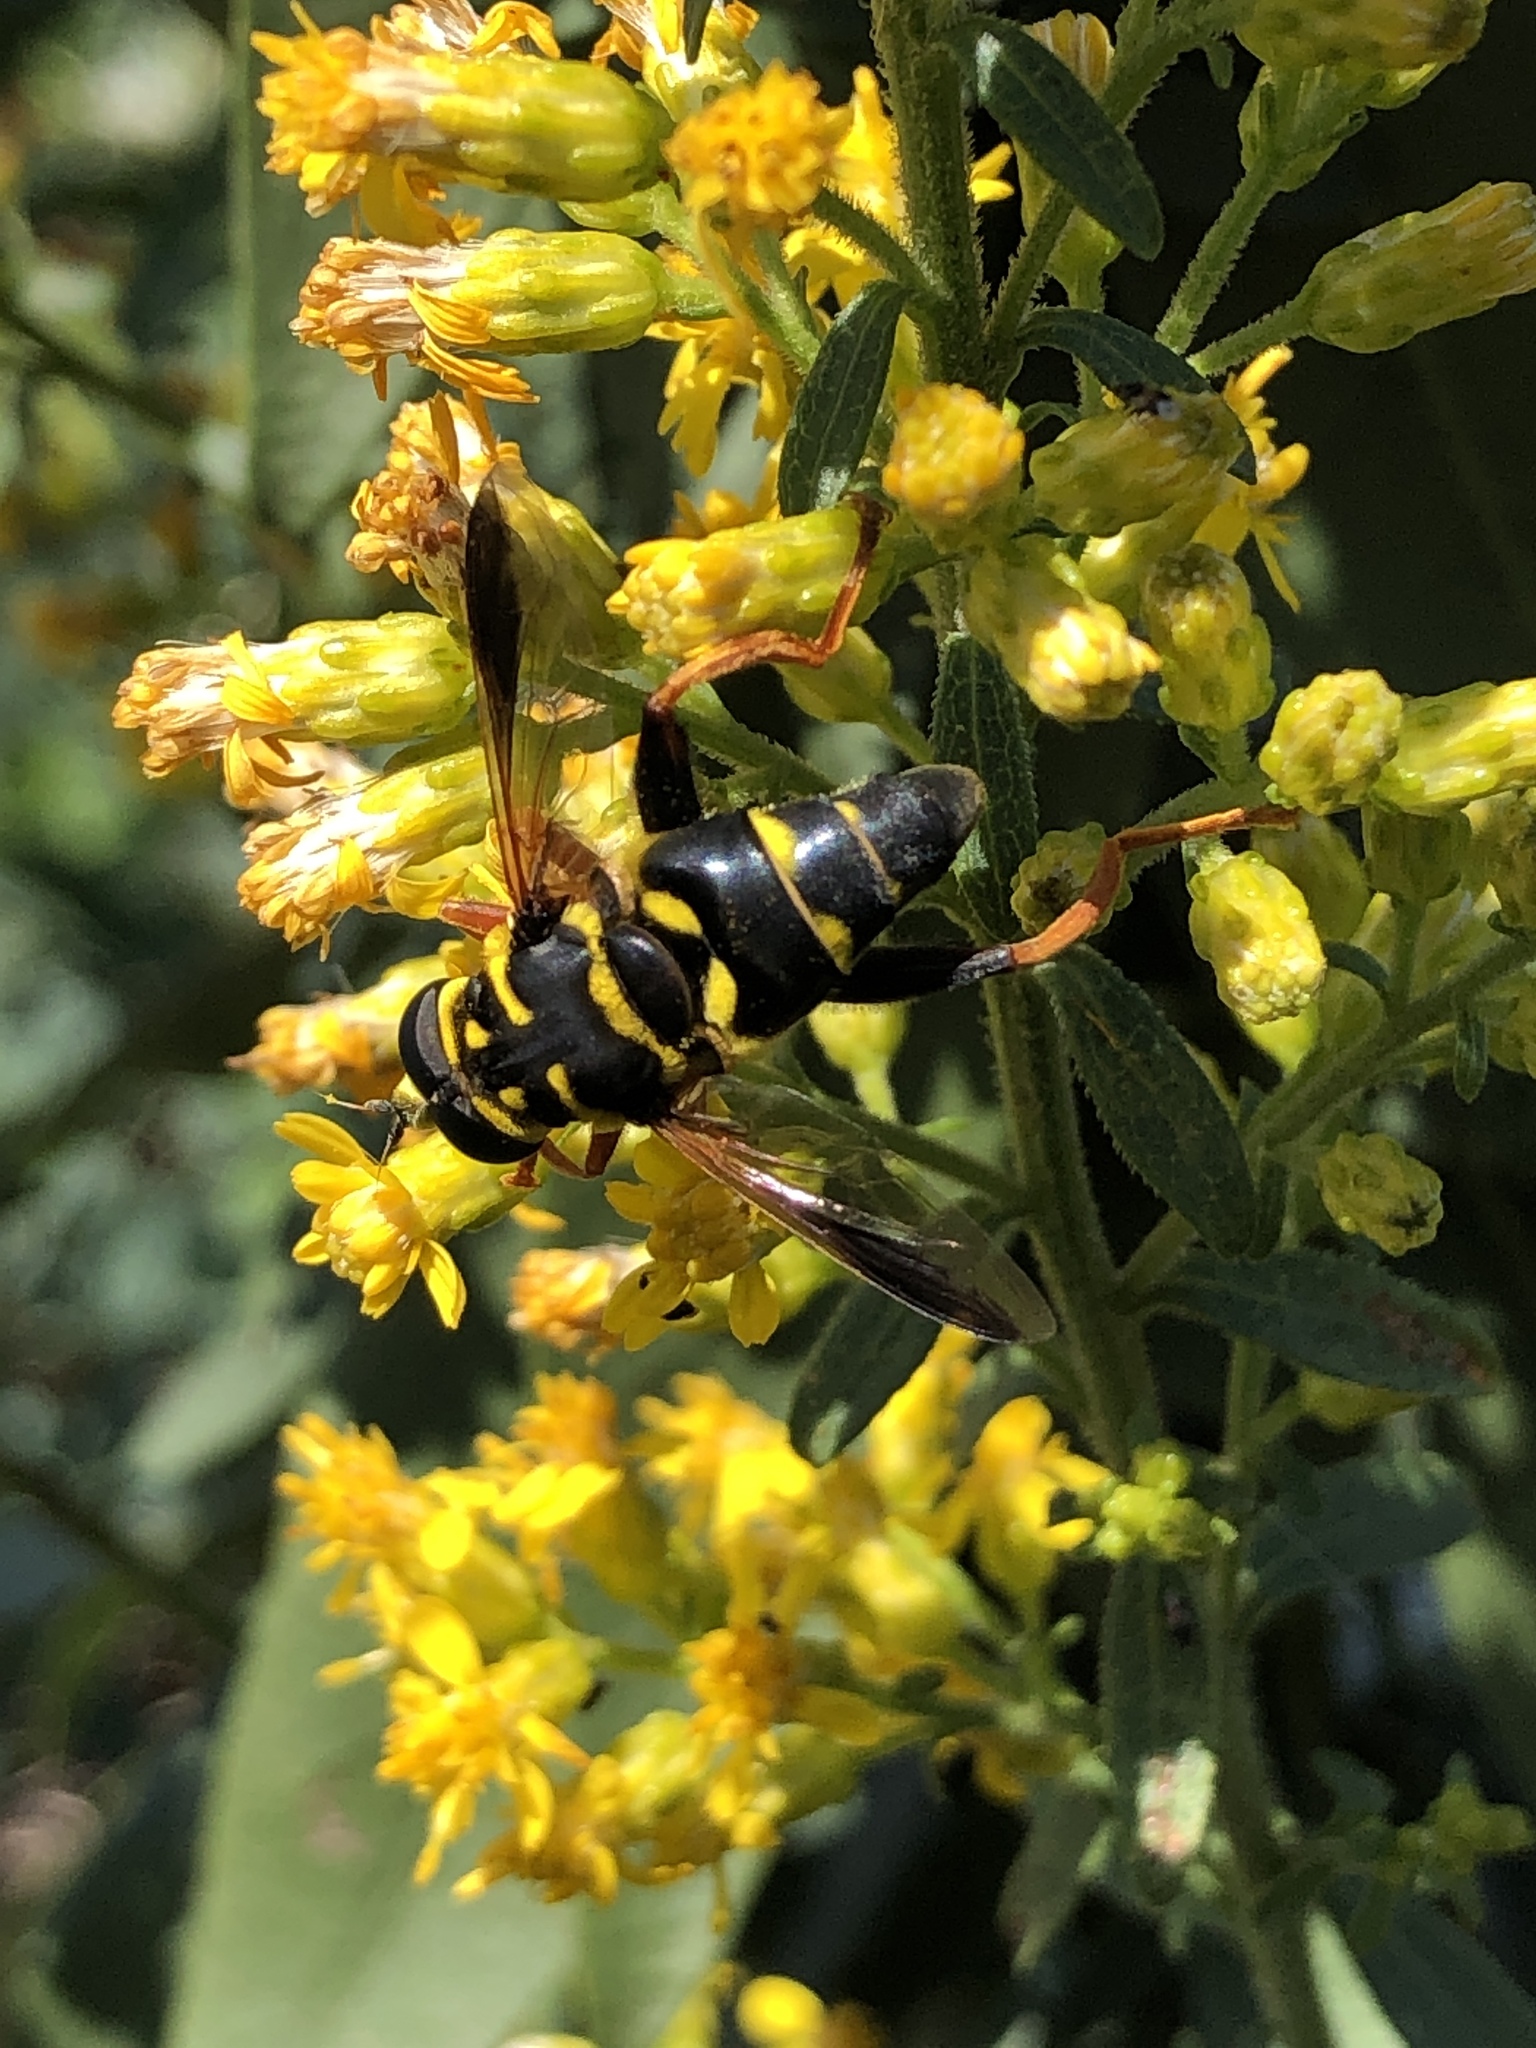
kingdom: Animalia
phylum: Arthropoda
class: Insecta
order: Diptera
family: Syrphidae
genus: Meromacrus
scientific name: Meromacrus acutus
